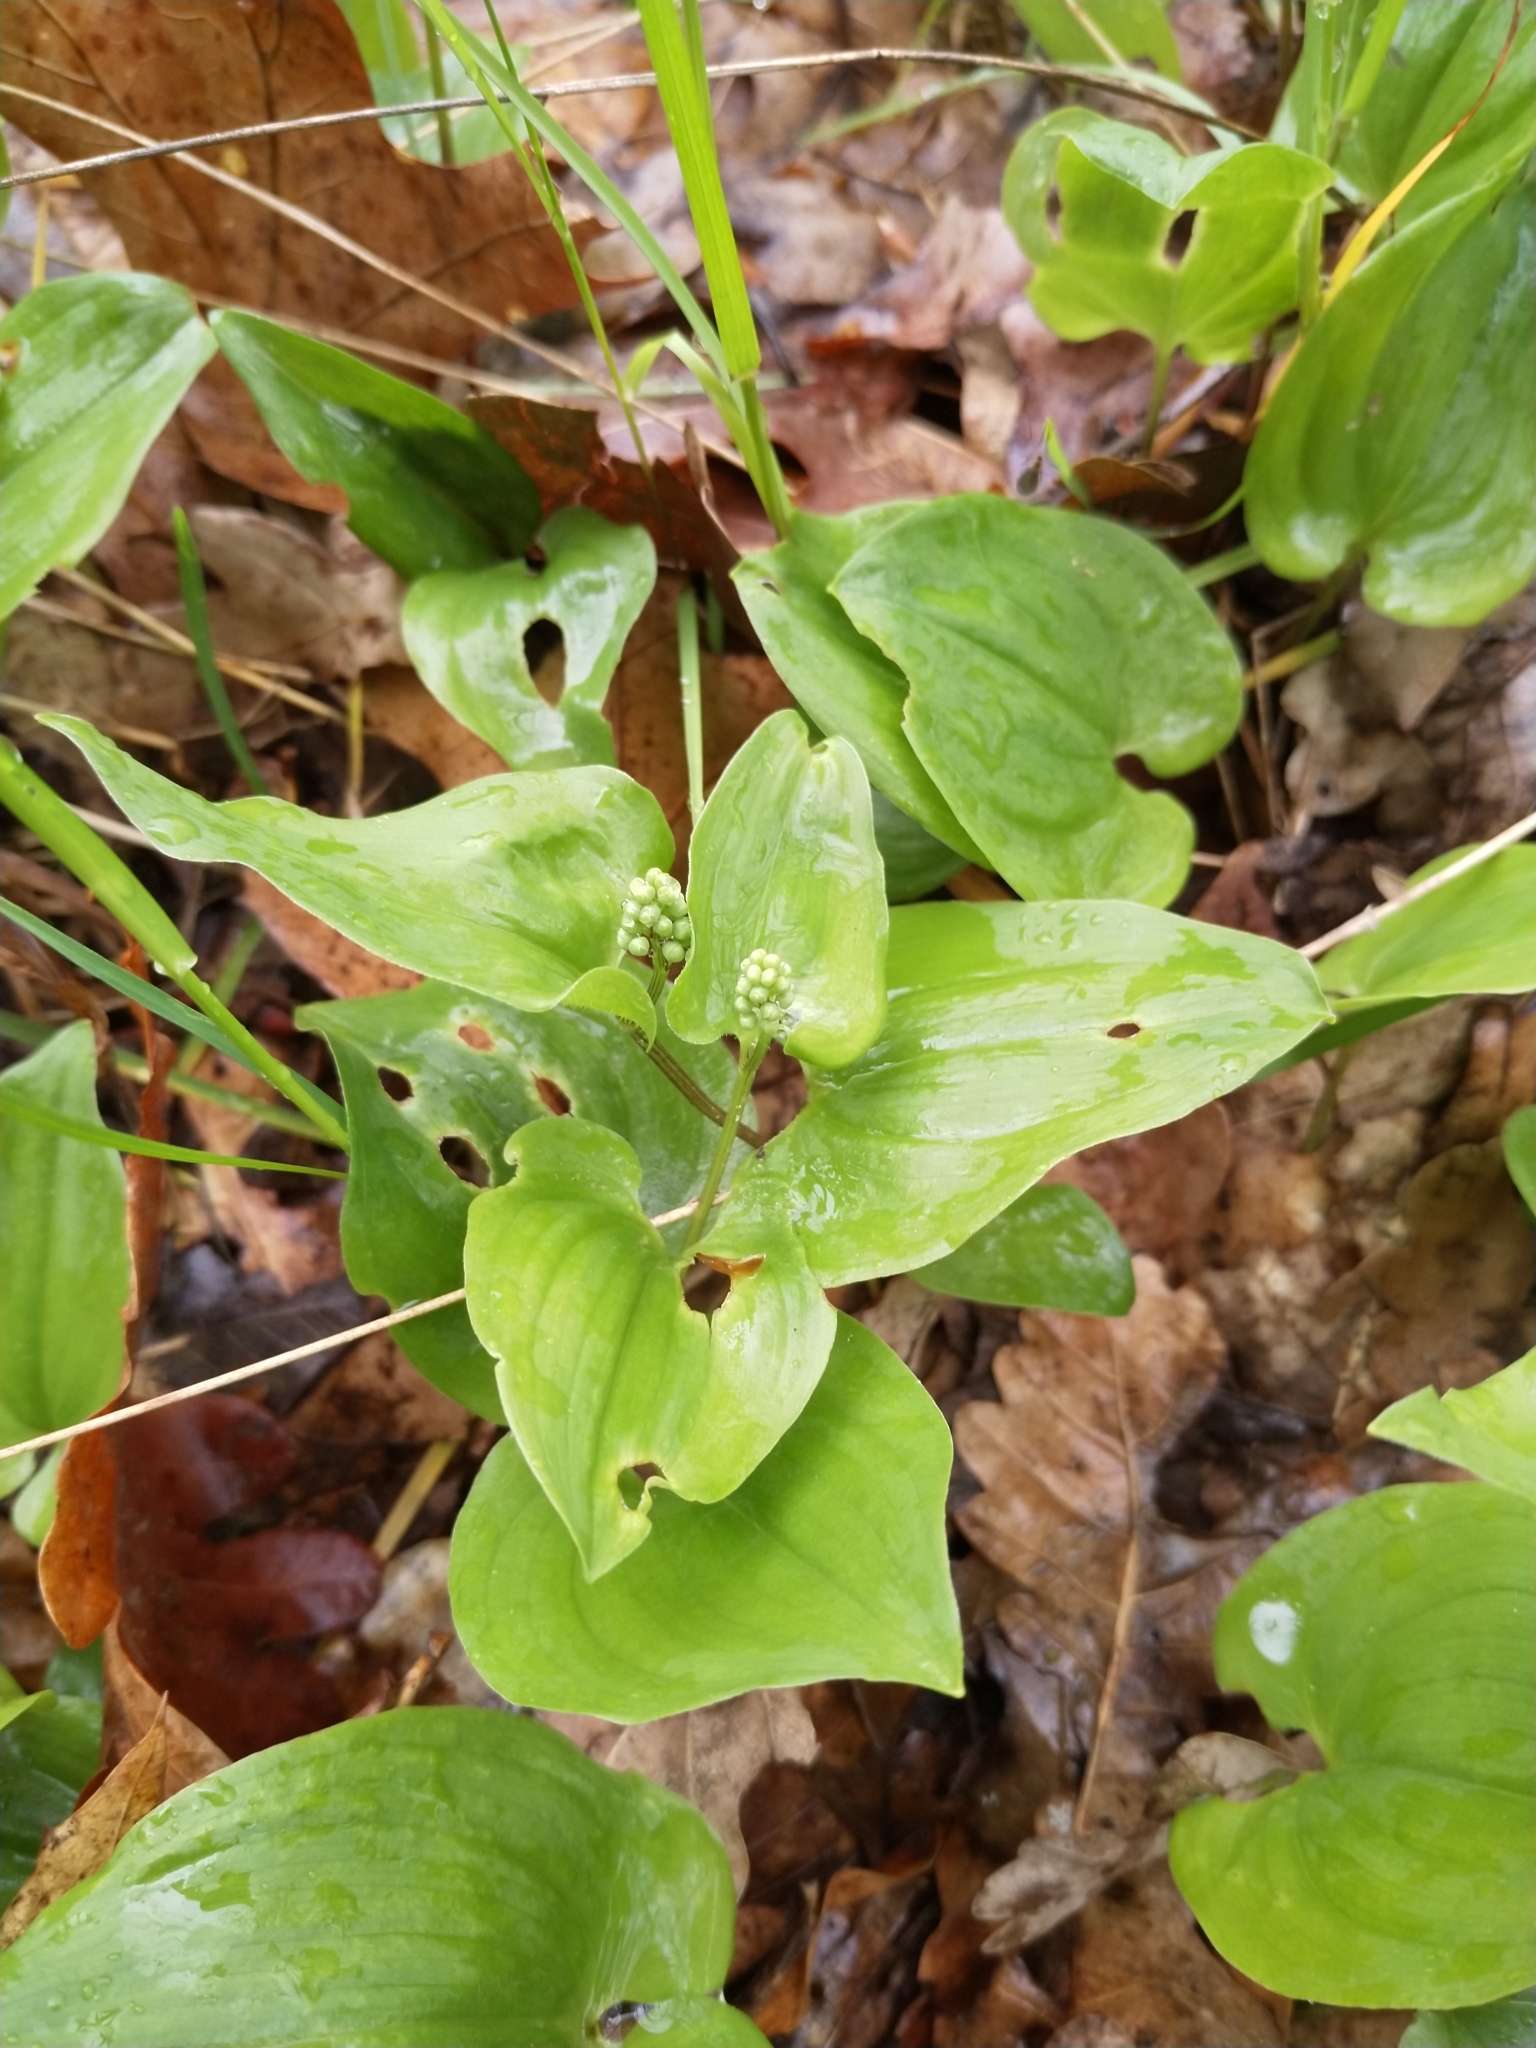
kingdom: Plantae
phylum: Tracheophyta
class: Liliopsida
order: Asparagales
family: Asparagaceae
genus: Maianthemum
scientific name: Maianthemum bifolium
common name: May lily
